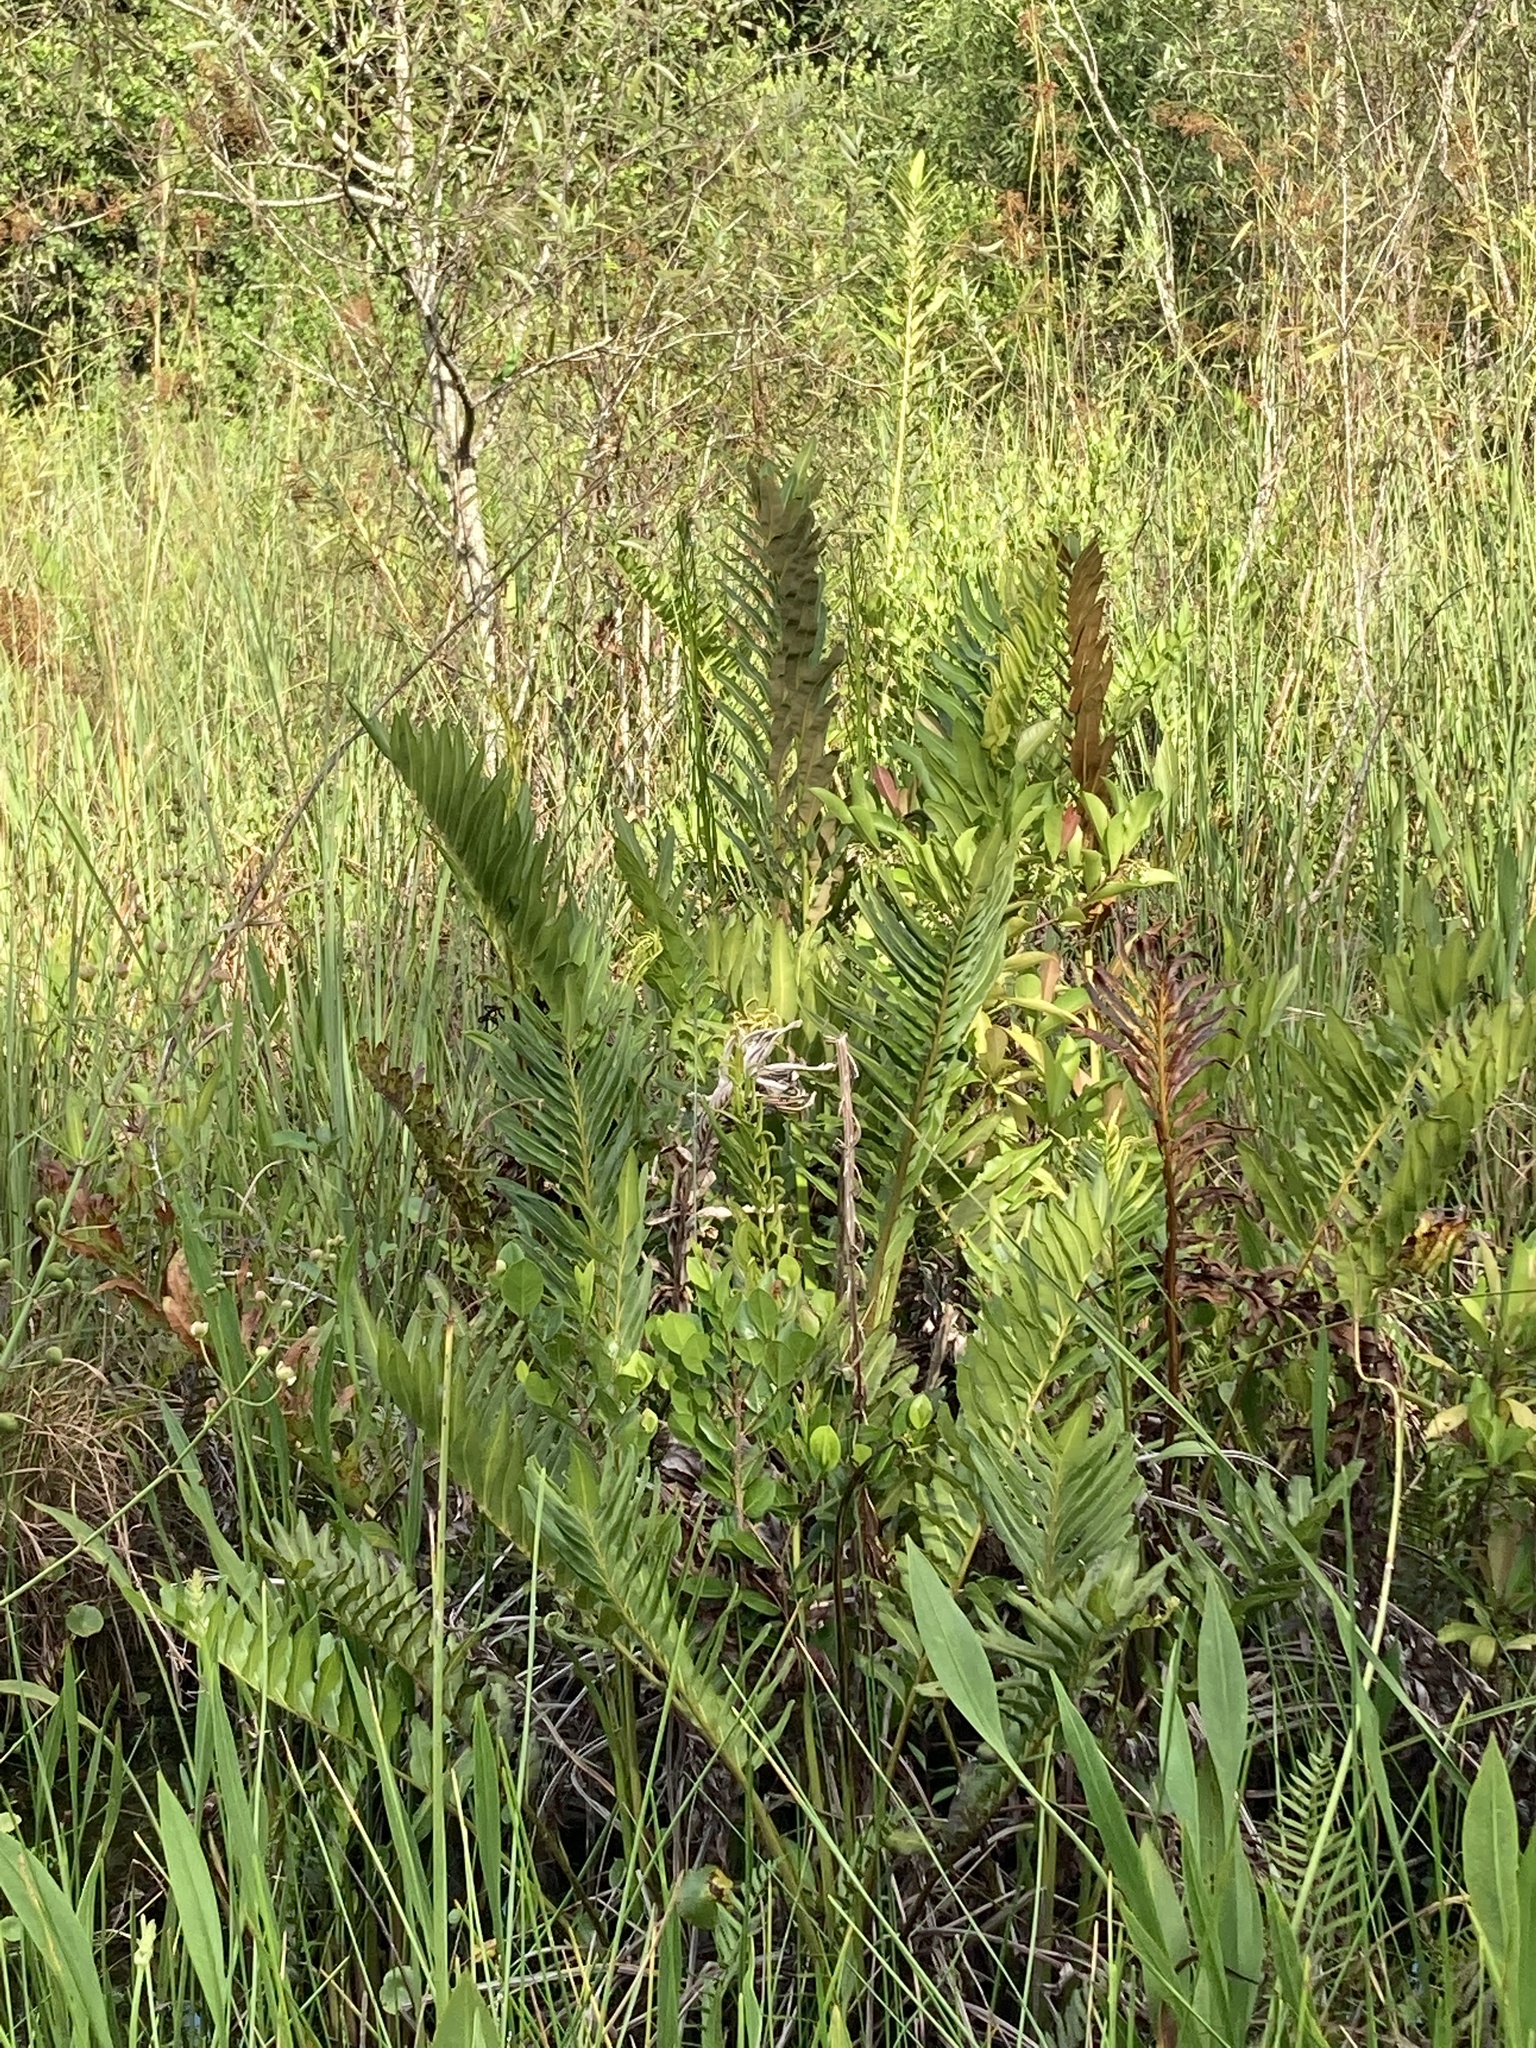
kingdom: Plantae
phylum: Tracheophyta
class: Polypodiopsida
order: Polypodiales
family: Pteridaceae
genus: Acrostichum
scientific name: Acrostichum danaeifolium
